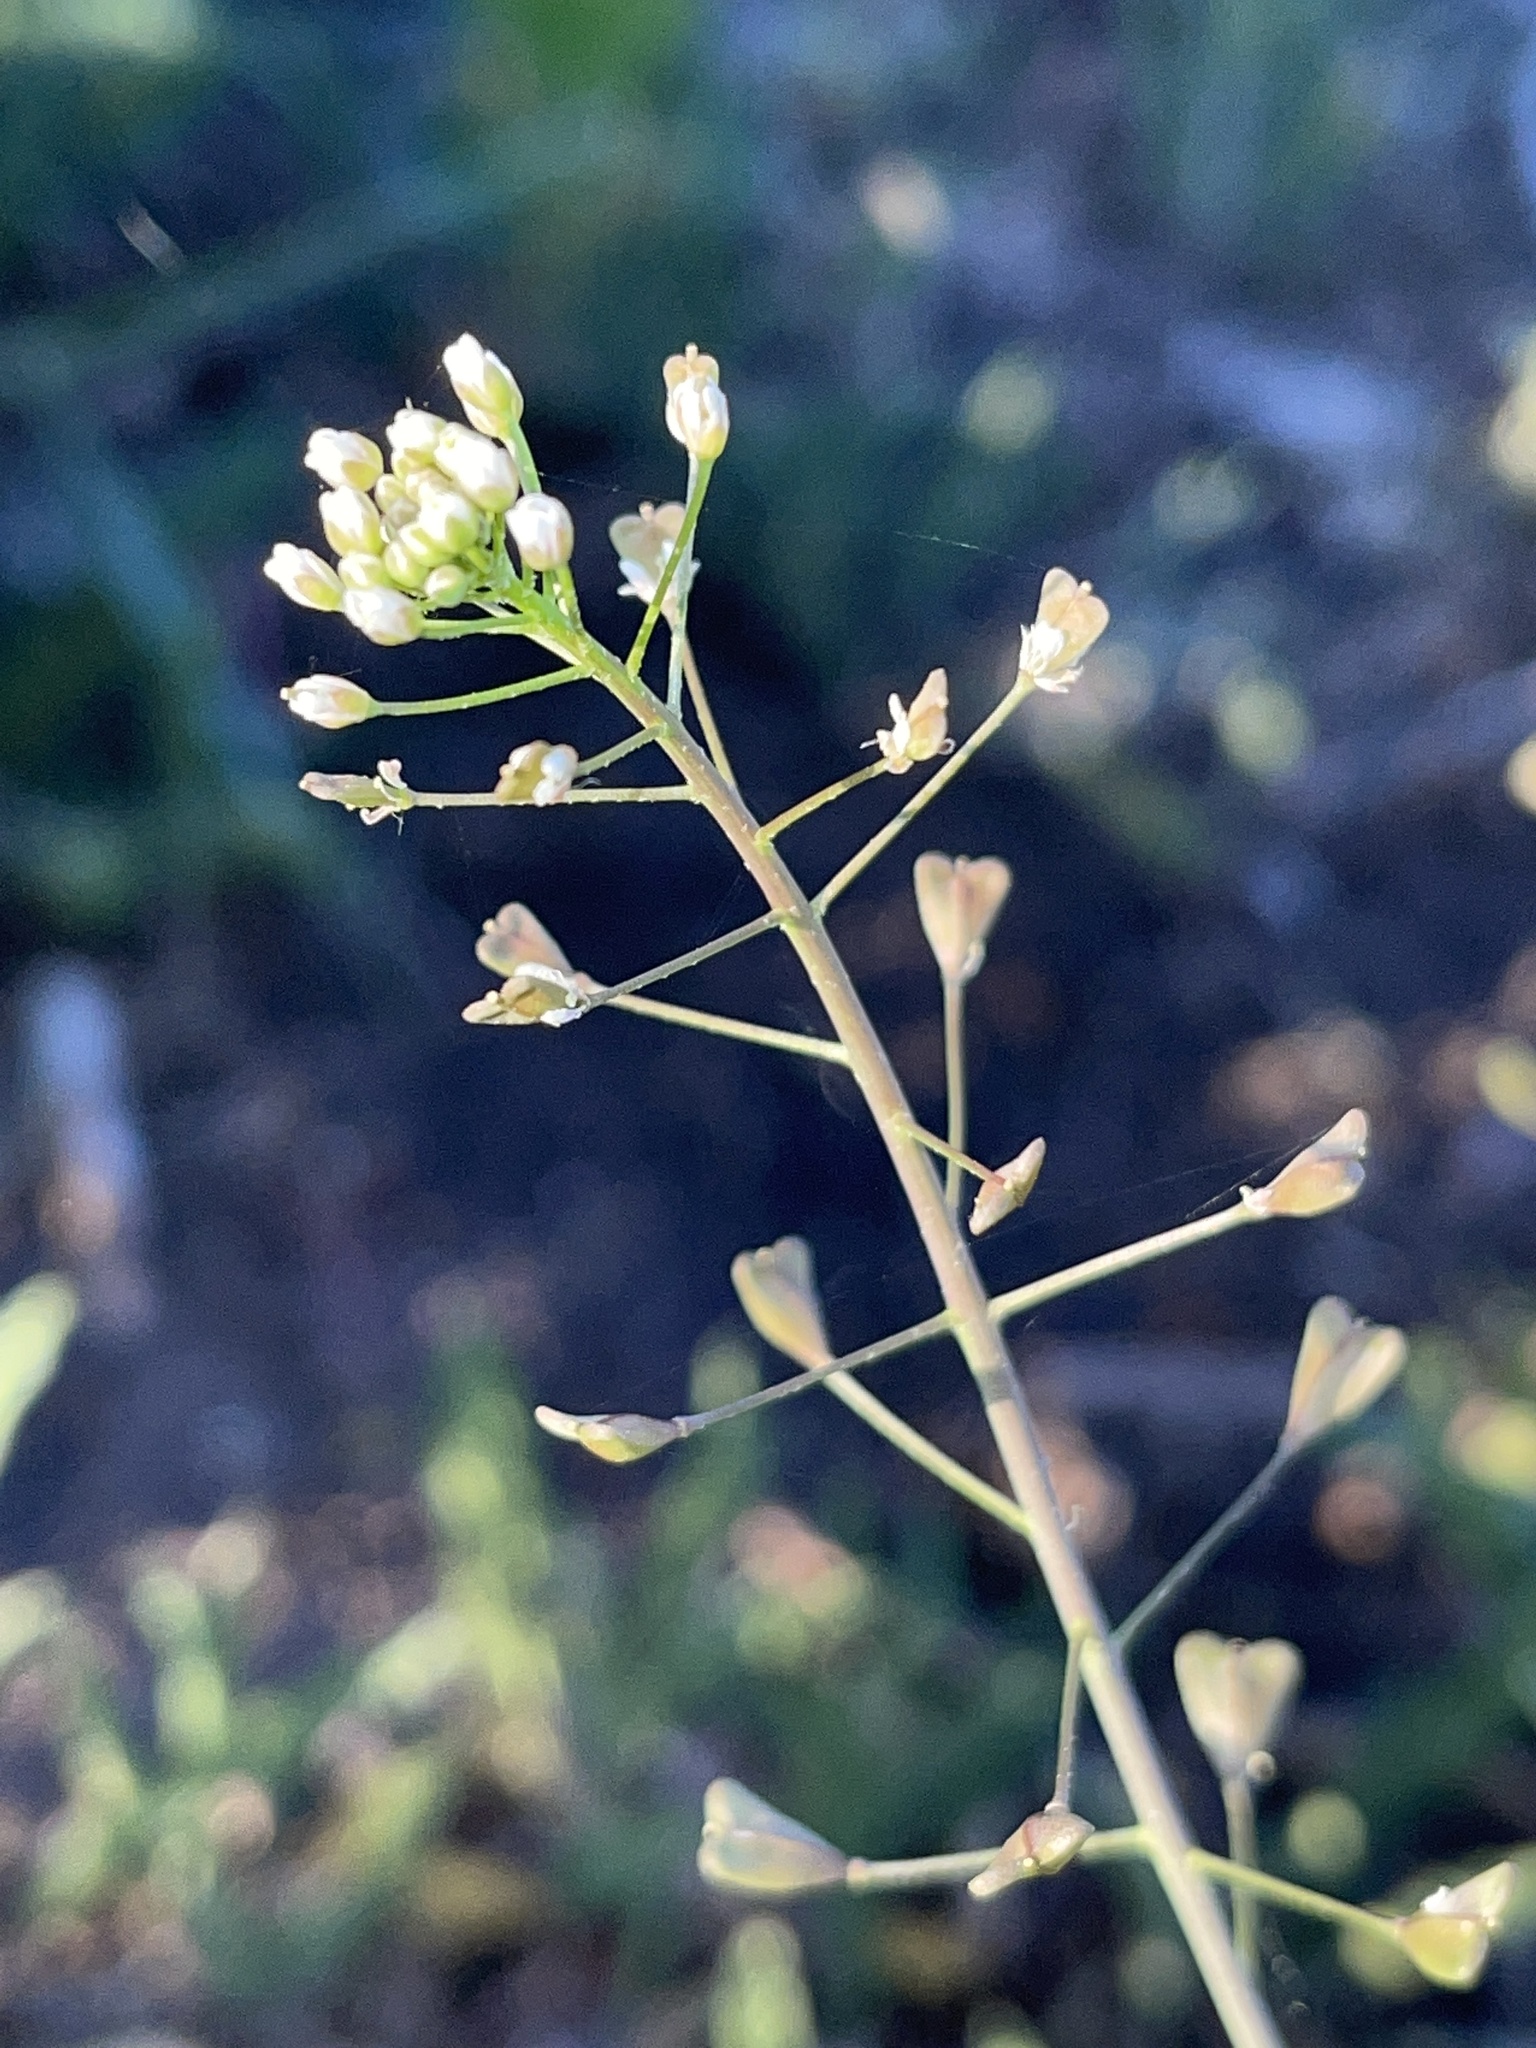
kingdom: Plantae
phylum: Tracheophyta
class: Magnoliopsida
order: Brassicales
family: Brassicaceae
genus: Capsella
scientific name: Capsella bursa-pastoris
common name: Shepherd's purse
